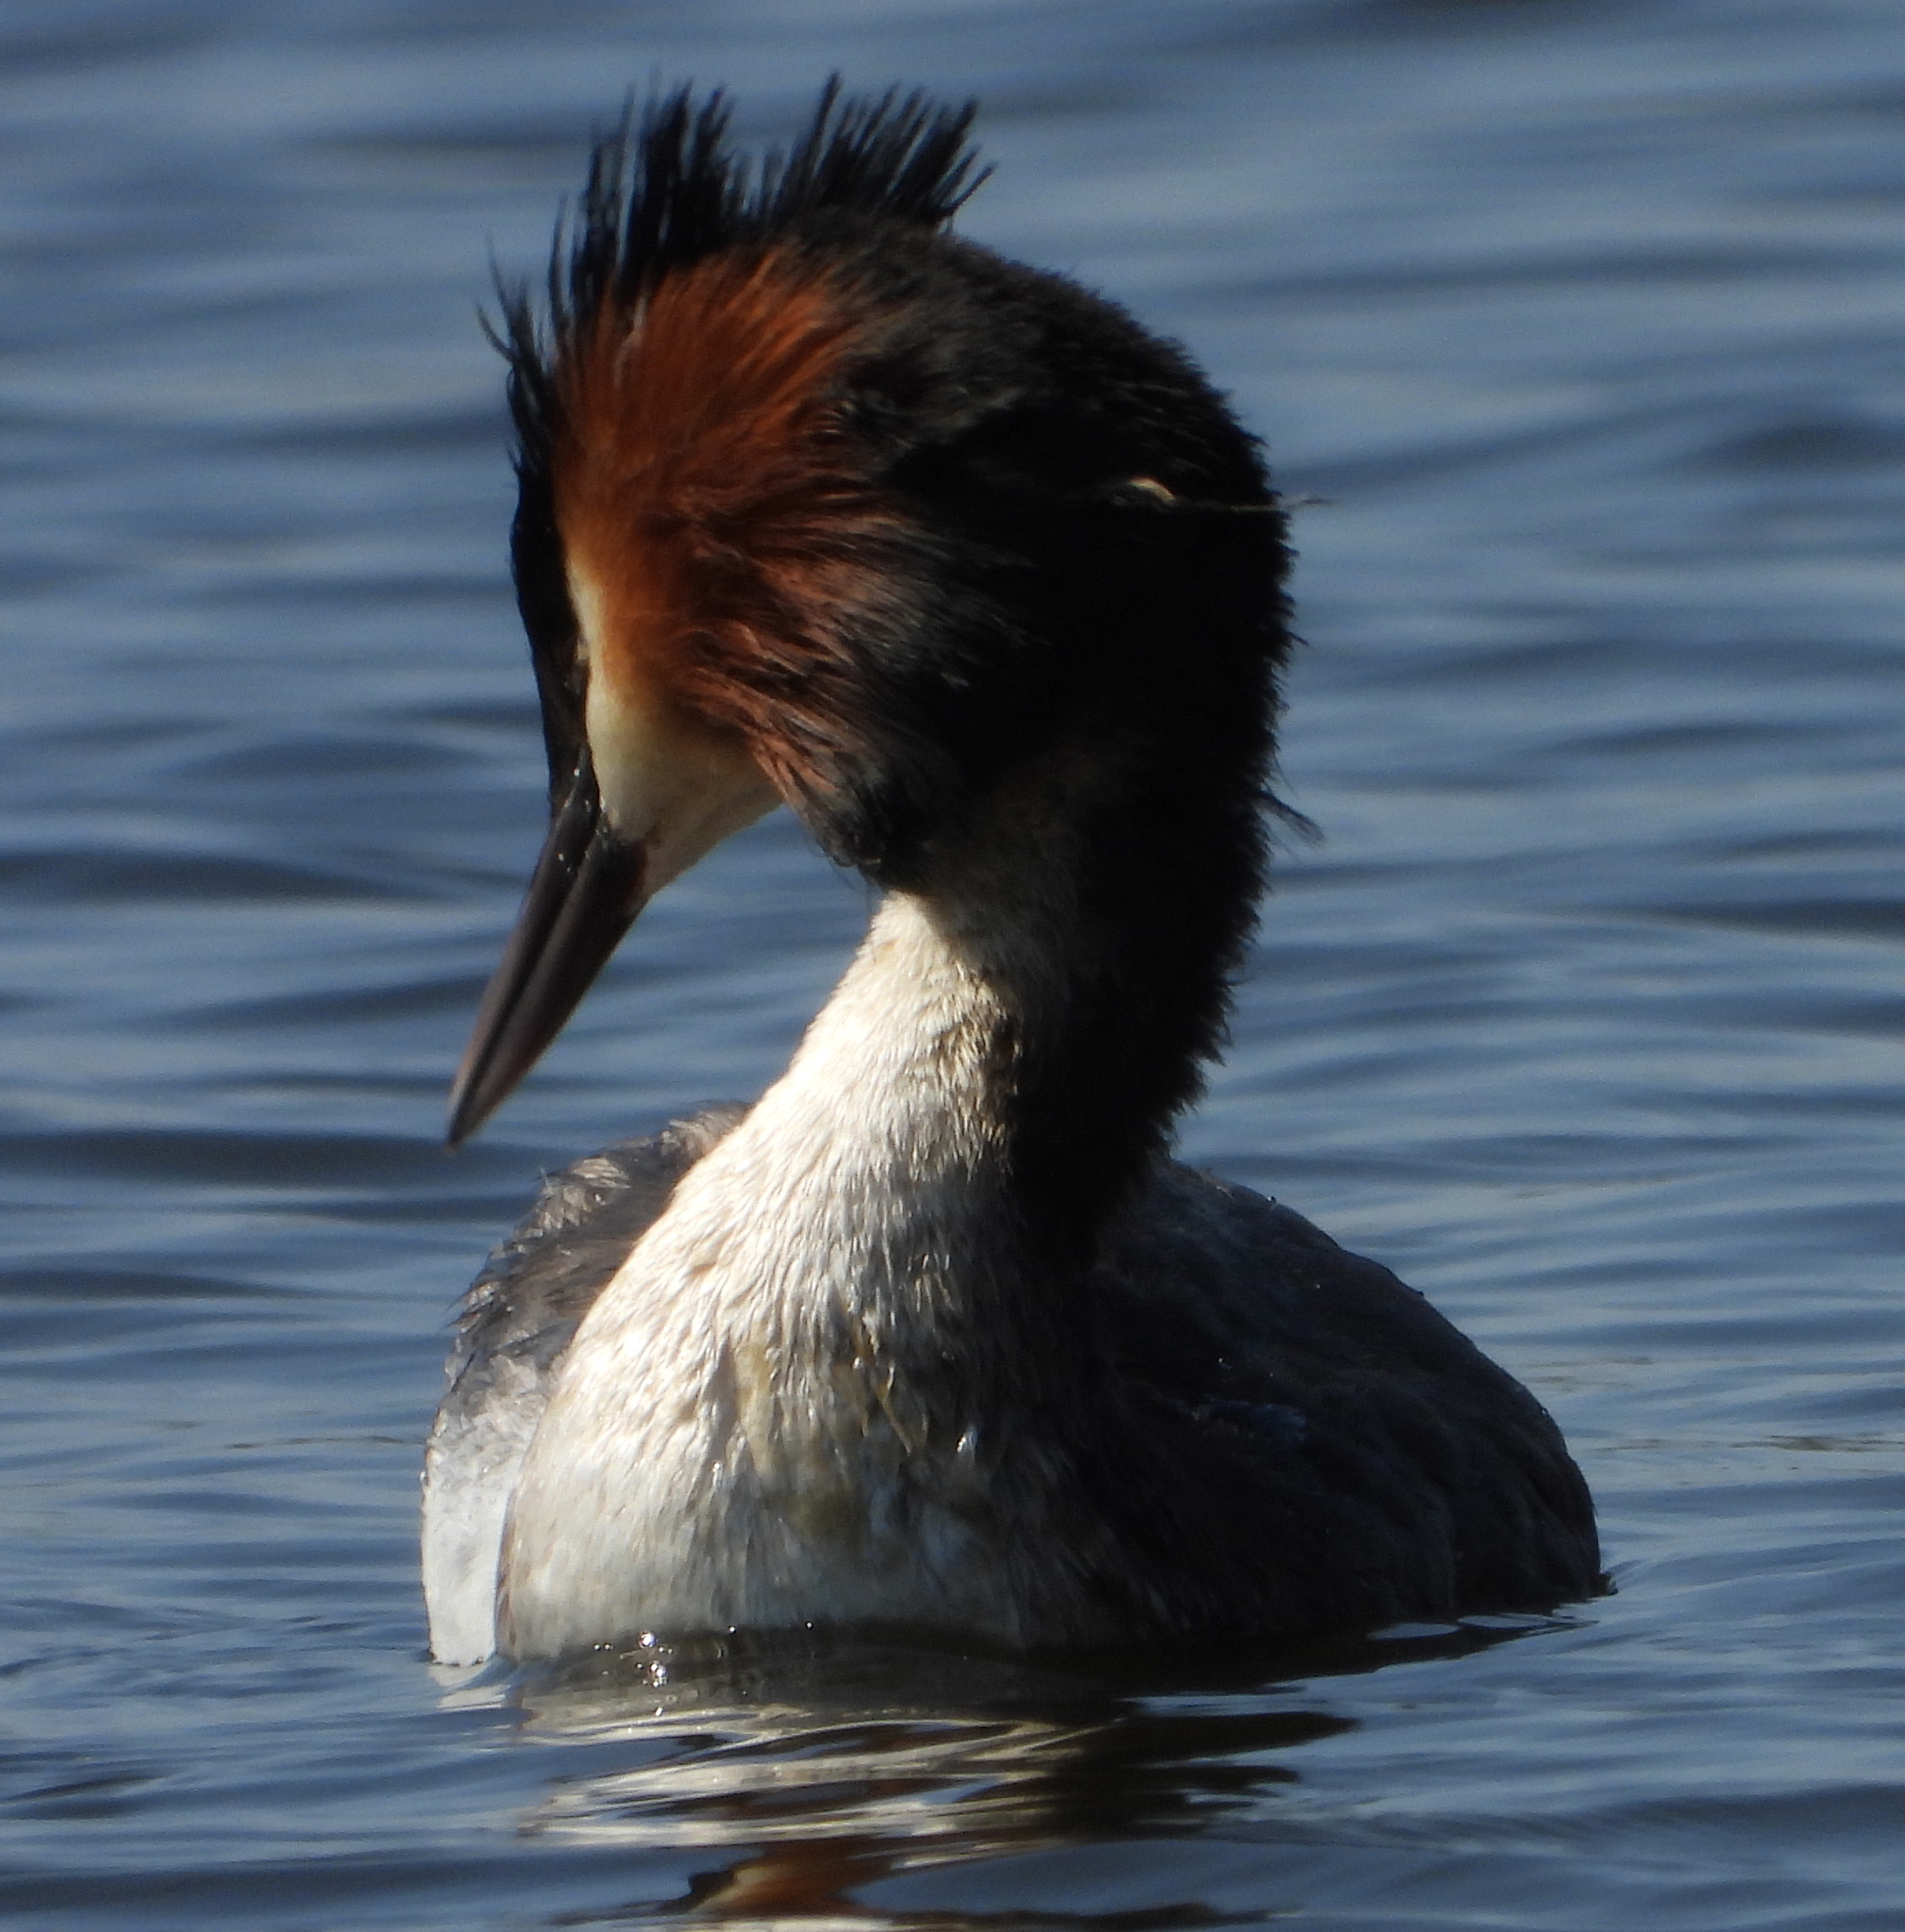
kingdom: Animalia
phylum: Chordata
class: Aves
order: Podicipediformes
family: Podicipedidae
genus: Podiceps
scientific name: Podiceps cristatus
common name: Great crested grebe
